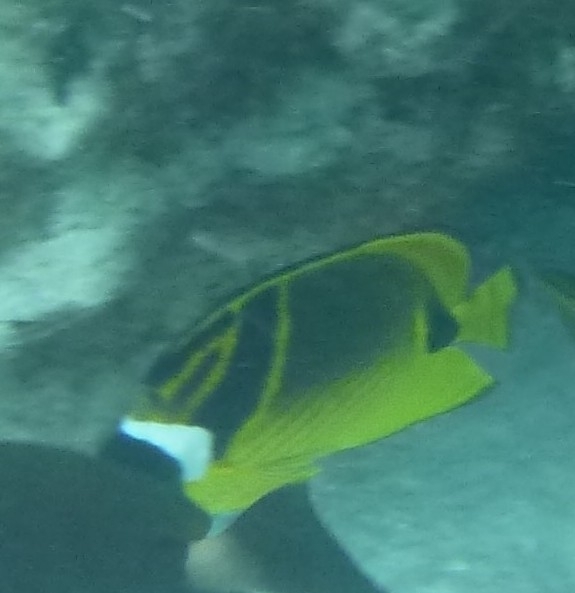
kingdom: Animalia
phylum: Chordata
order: Perciformes
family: Chaetodontidae
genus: Chaetodon
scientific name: Chaetodon lunula
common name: Raccoon butterflyfish
